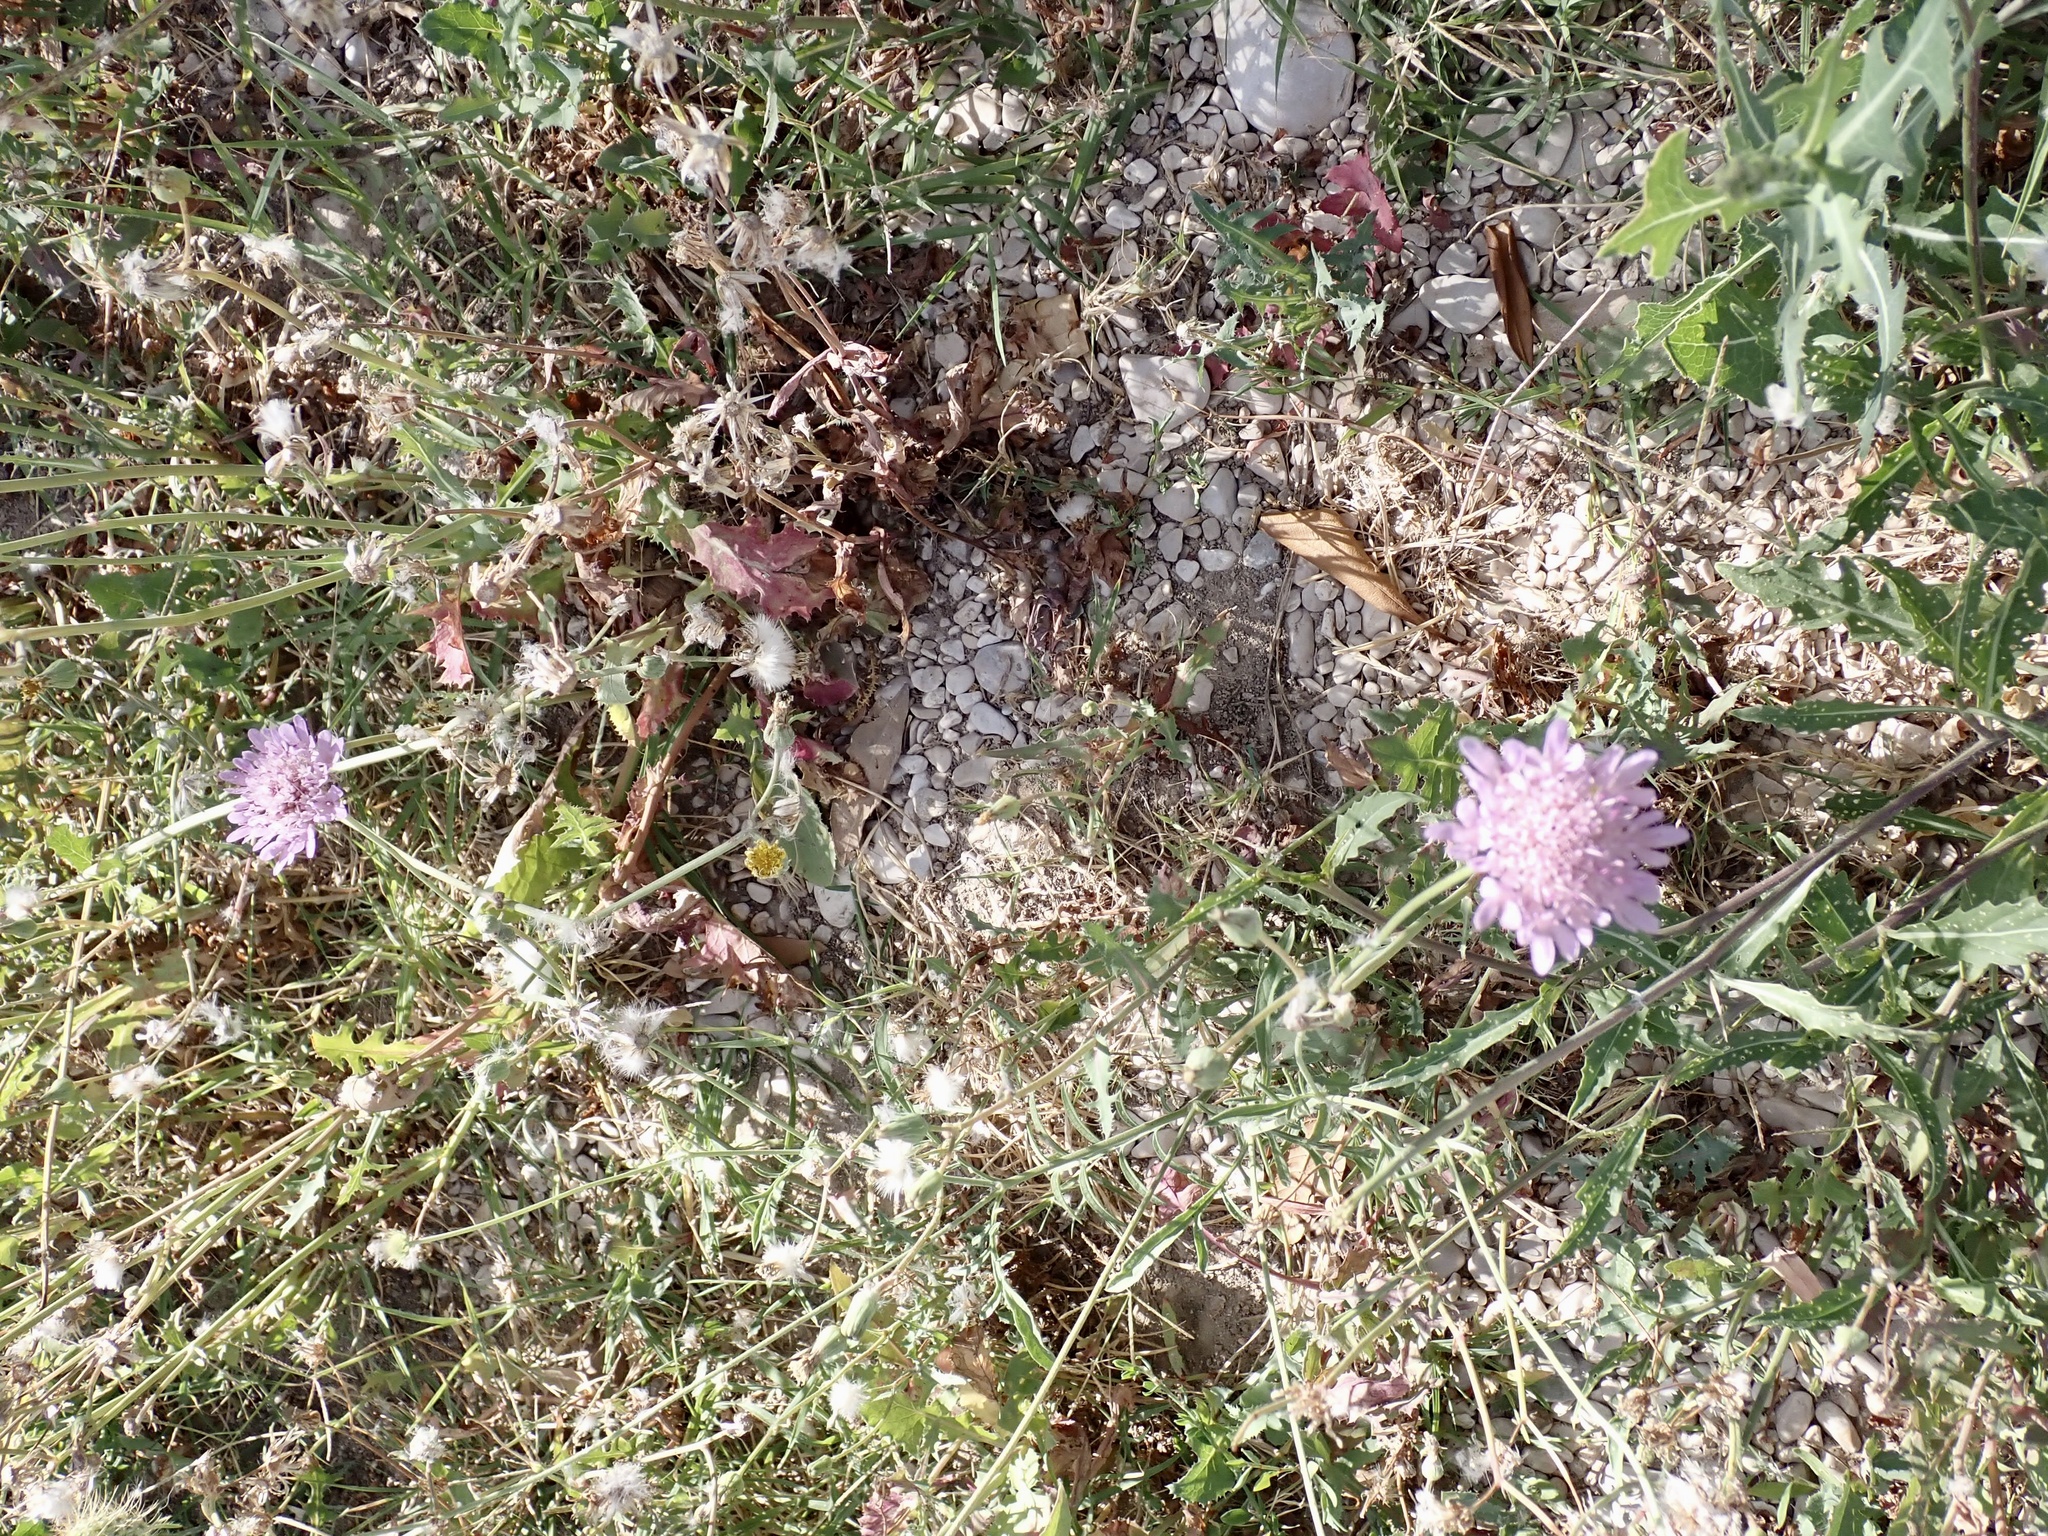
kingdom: Plantae
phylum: Tracheophyta
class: Magnoliopsida
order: Dipsacales
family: Caprifoliaceae
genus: Sixalix
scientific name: Sixalix atropurpurea
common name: Sweet scabious
